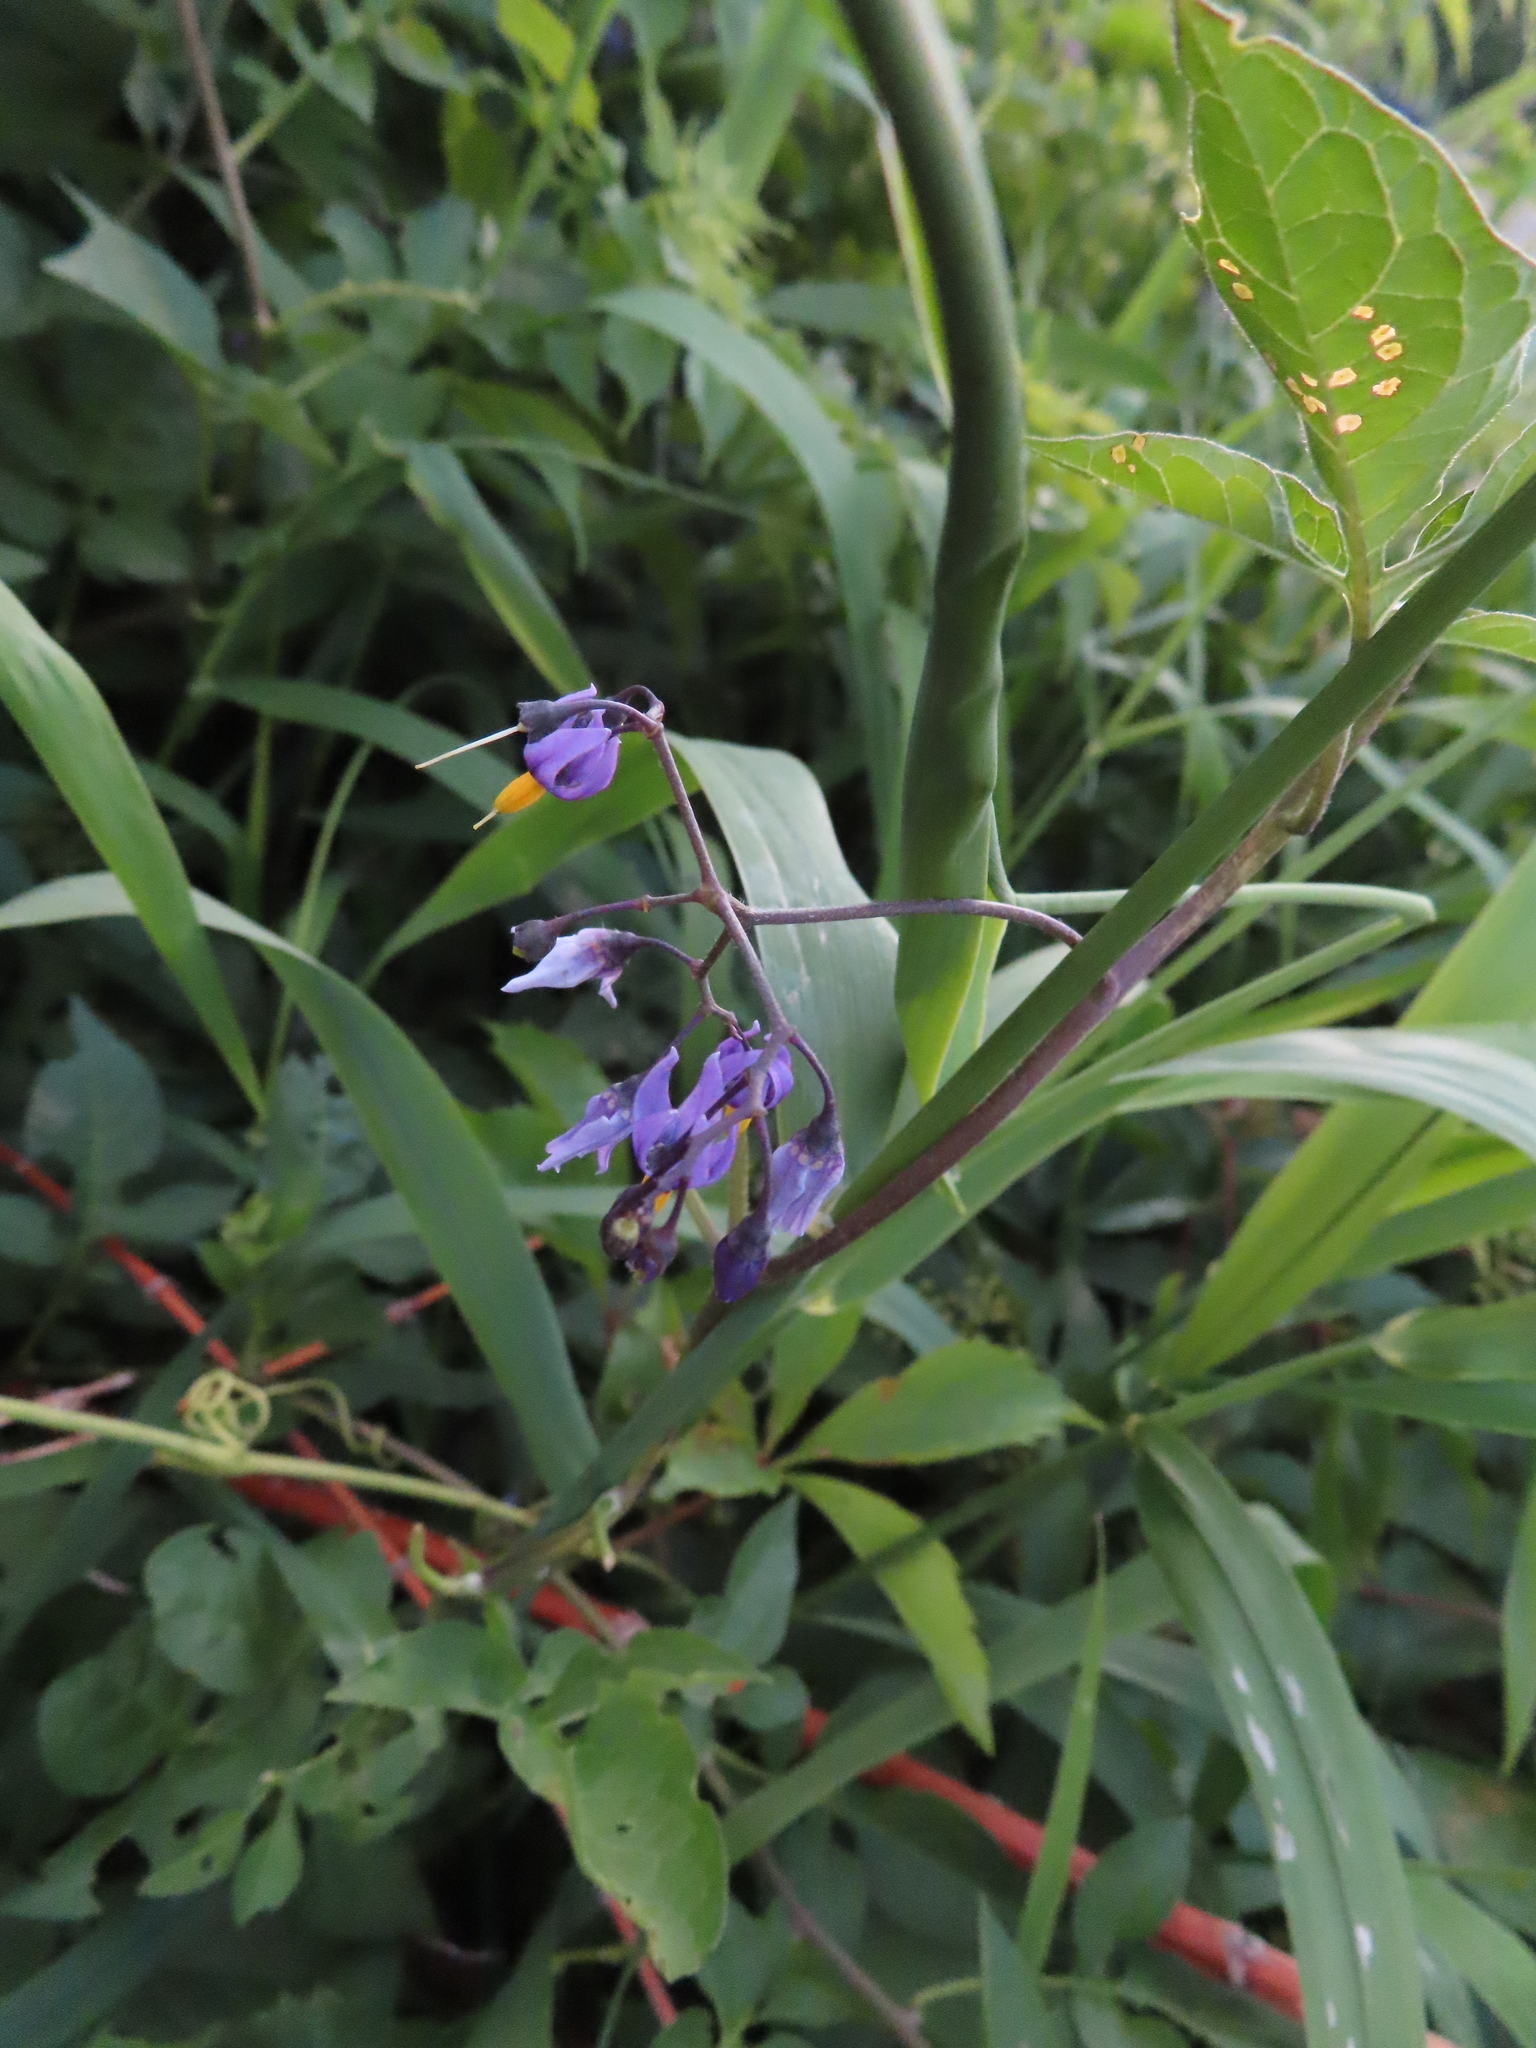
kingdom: Plantae
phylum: Tracheophyta
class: Magnoliopsida
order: Solanales
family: Solanaceae
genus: Solanum
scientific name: Solanum dulcamara
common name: Climbing nightshade
